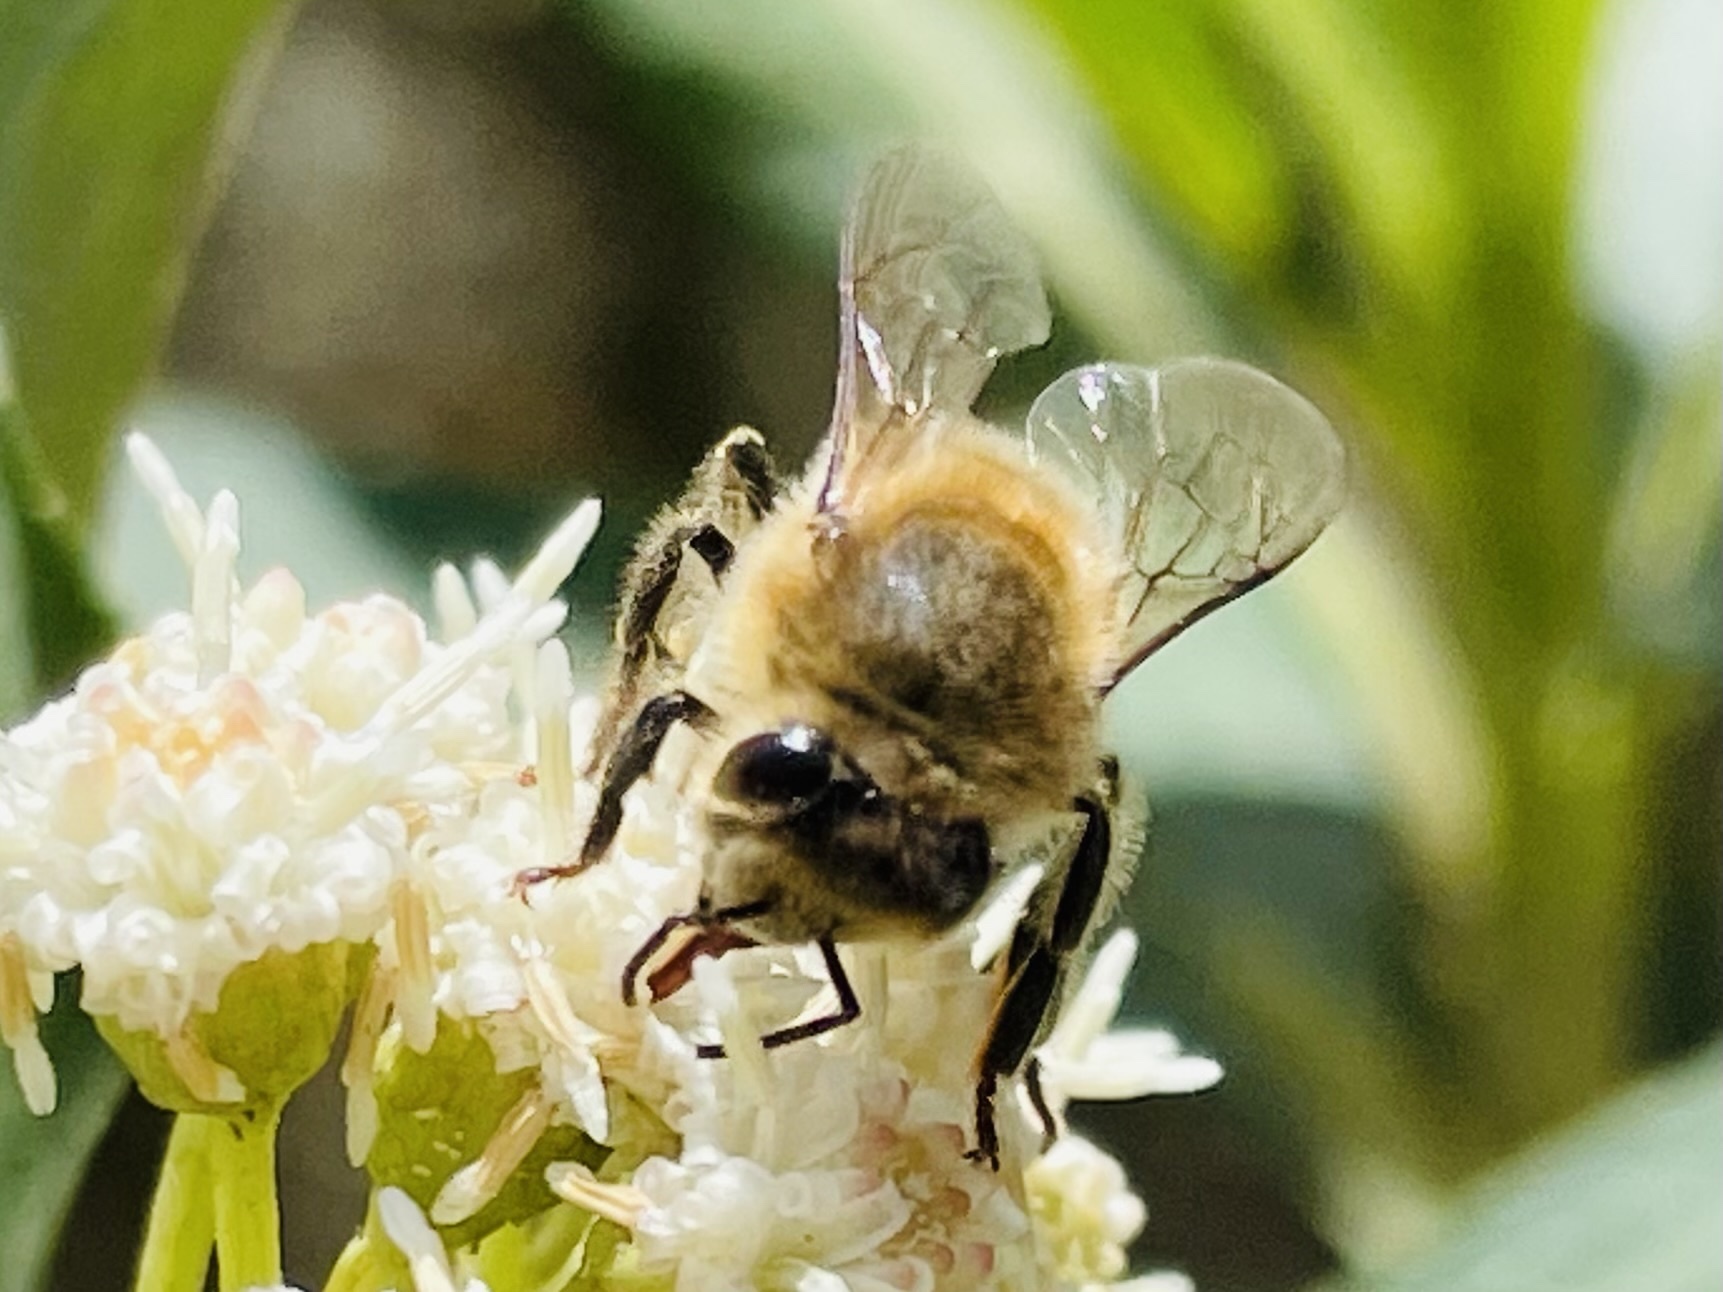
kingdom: Animalia
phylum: Arthropoda
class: Insecta
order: Hymenoptera
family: Apidae
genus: Apis
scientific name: Apis mellifera
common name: Honey bee
